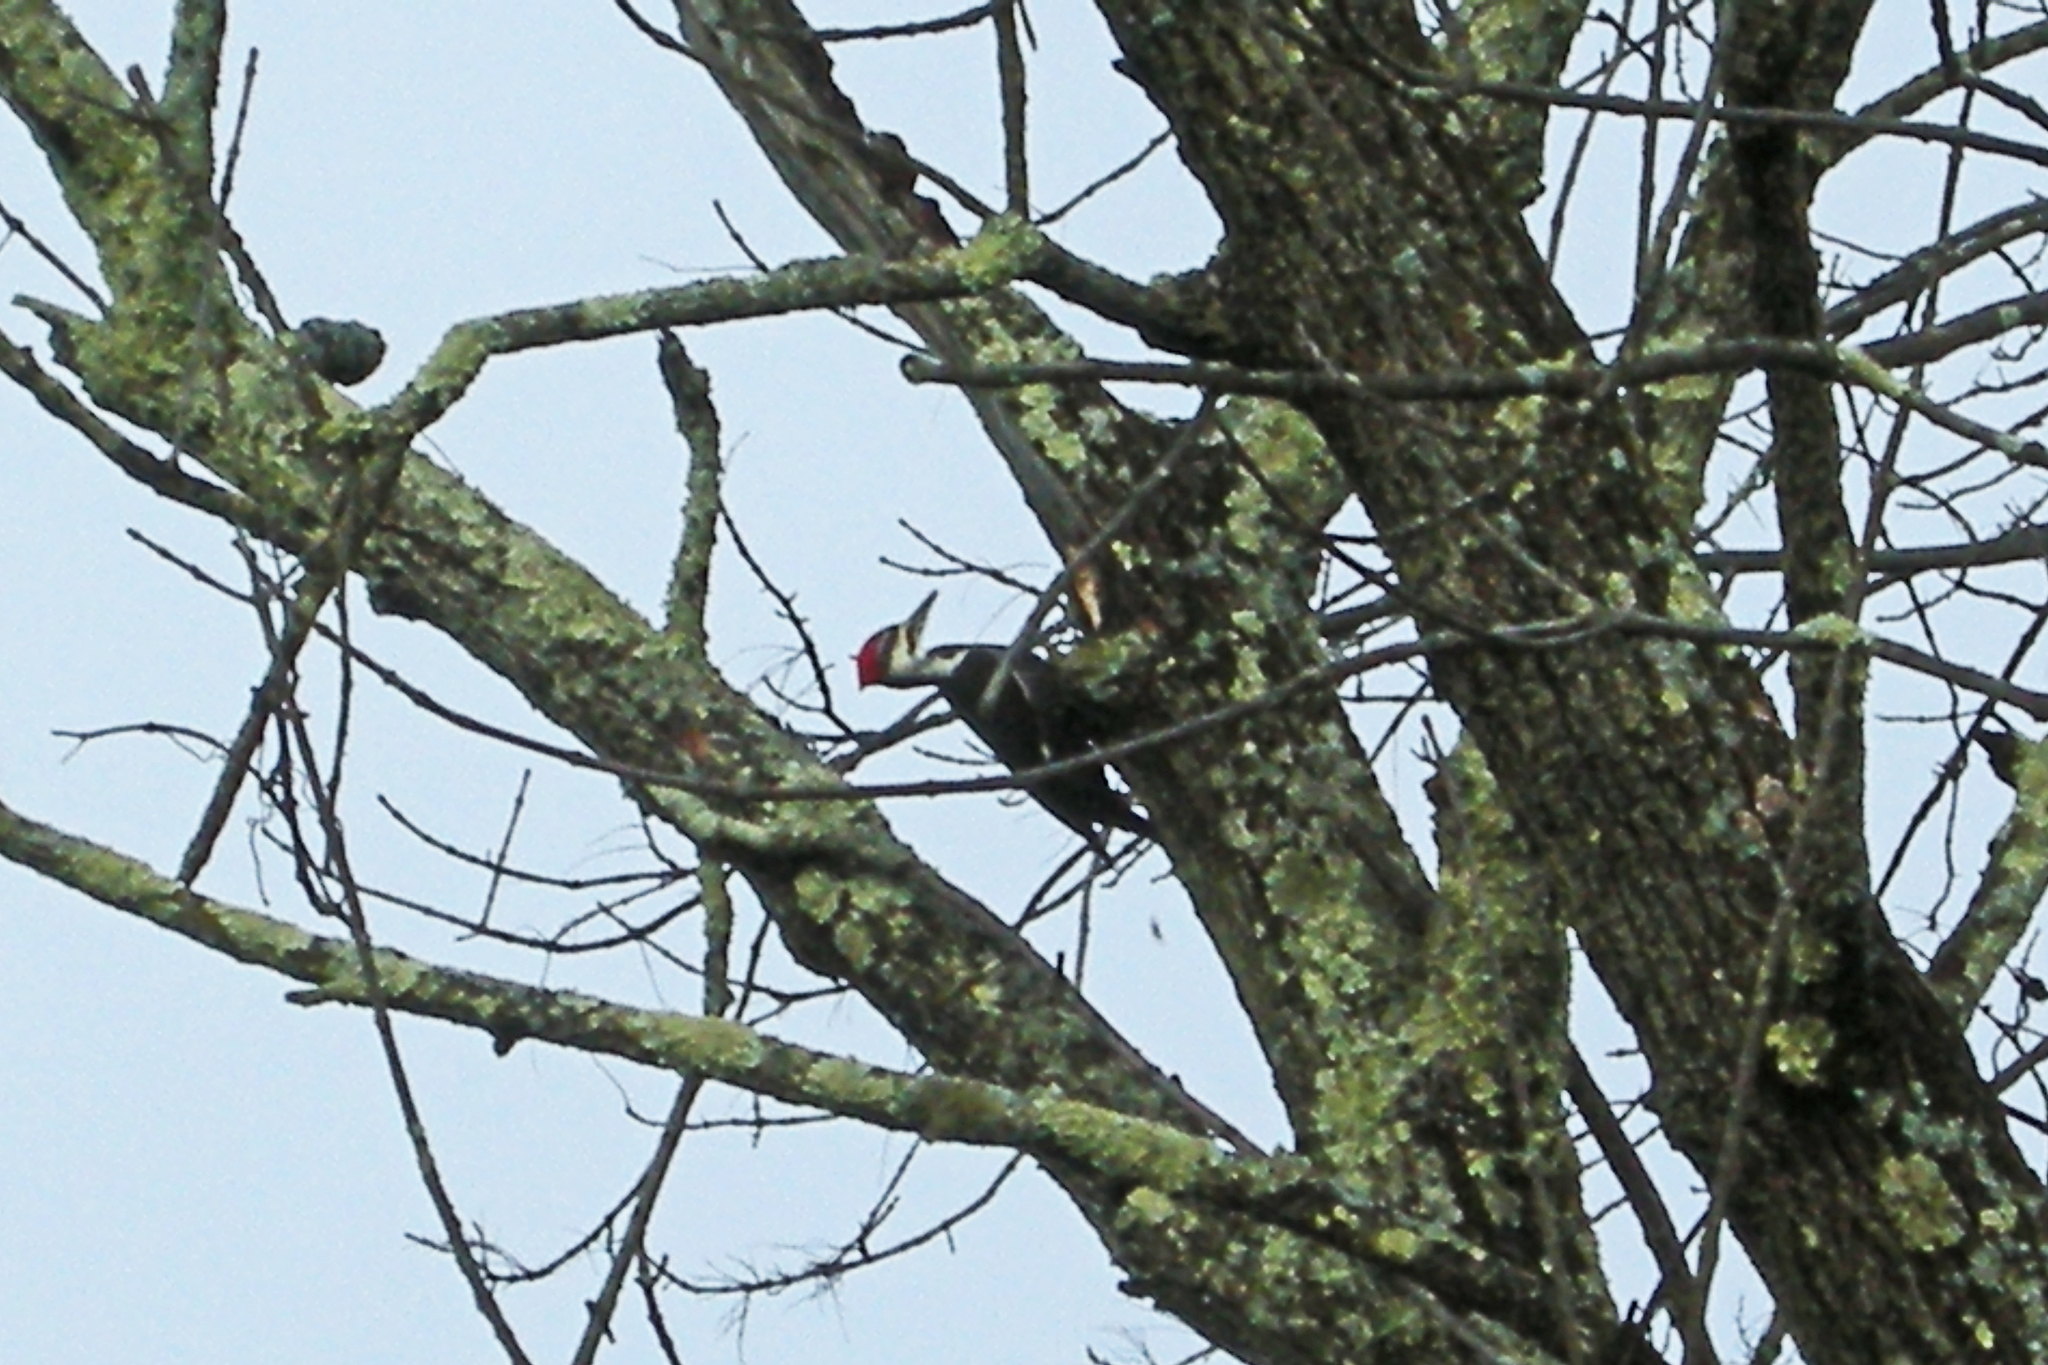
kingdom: Animalia
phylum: Chordata
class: Aves
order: Piciformes
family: Picidae
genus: Dryocopus
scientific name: Dryocopus pileatus
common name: Pileated woodpecker
